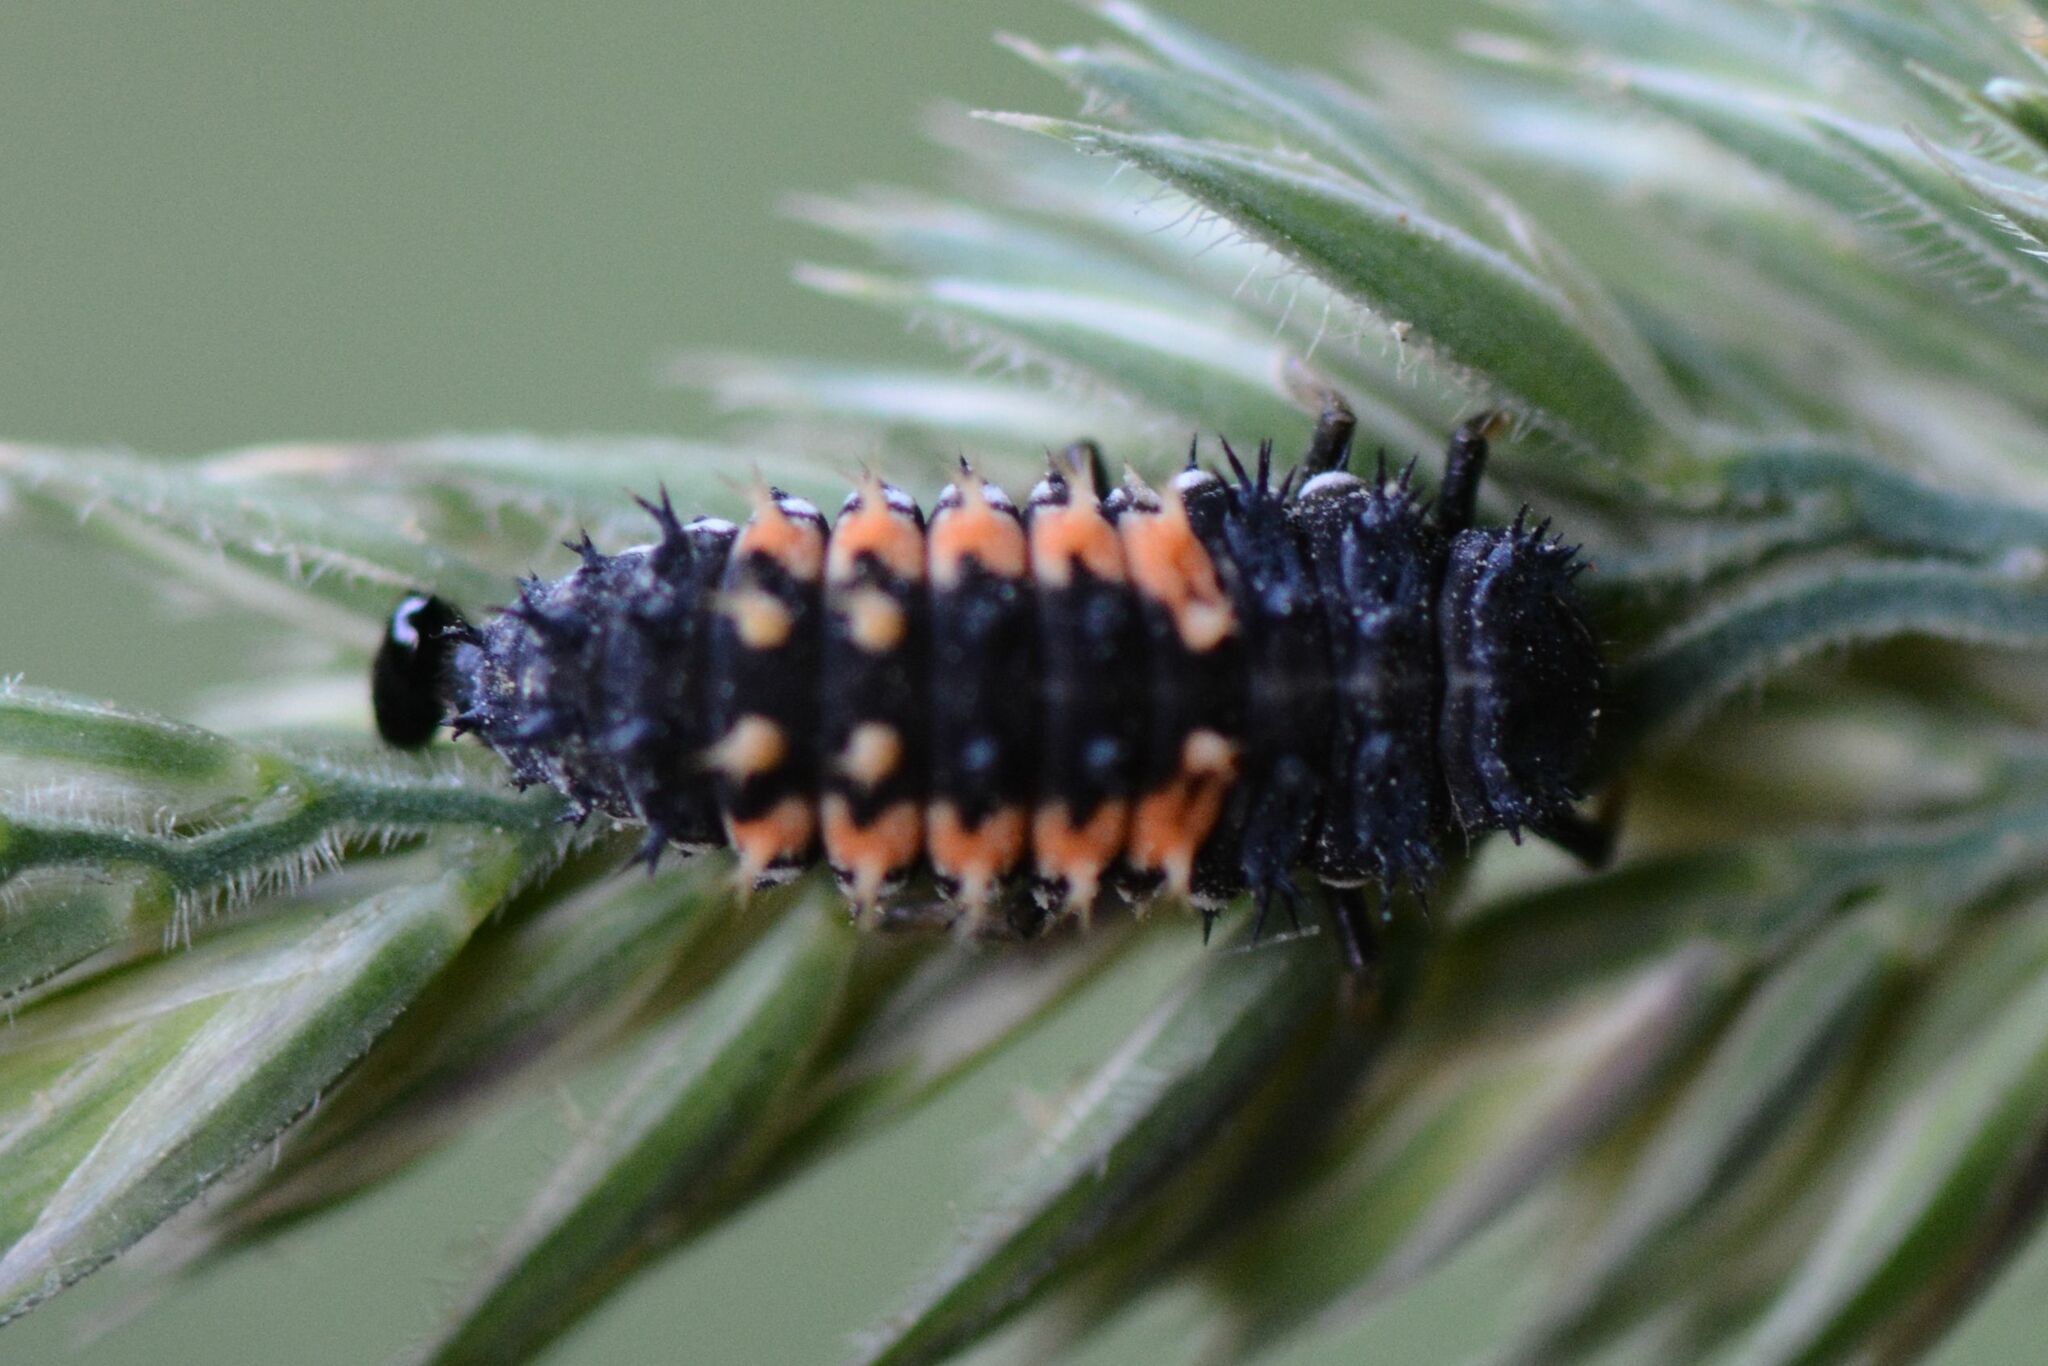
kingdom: Animalia
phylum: Arthropoda
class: Insecta
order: Coleoptera
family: Coccinellidae
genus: Harmonia
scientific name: Harmonia axyridis
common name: Harlequin ladybird
